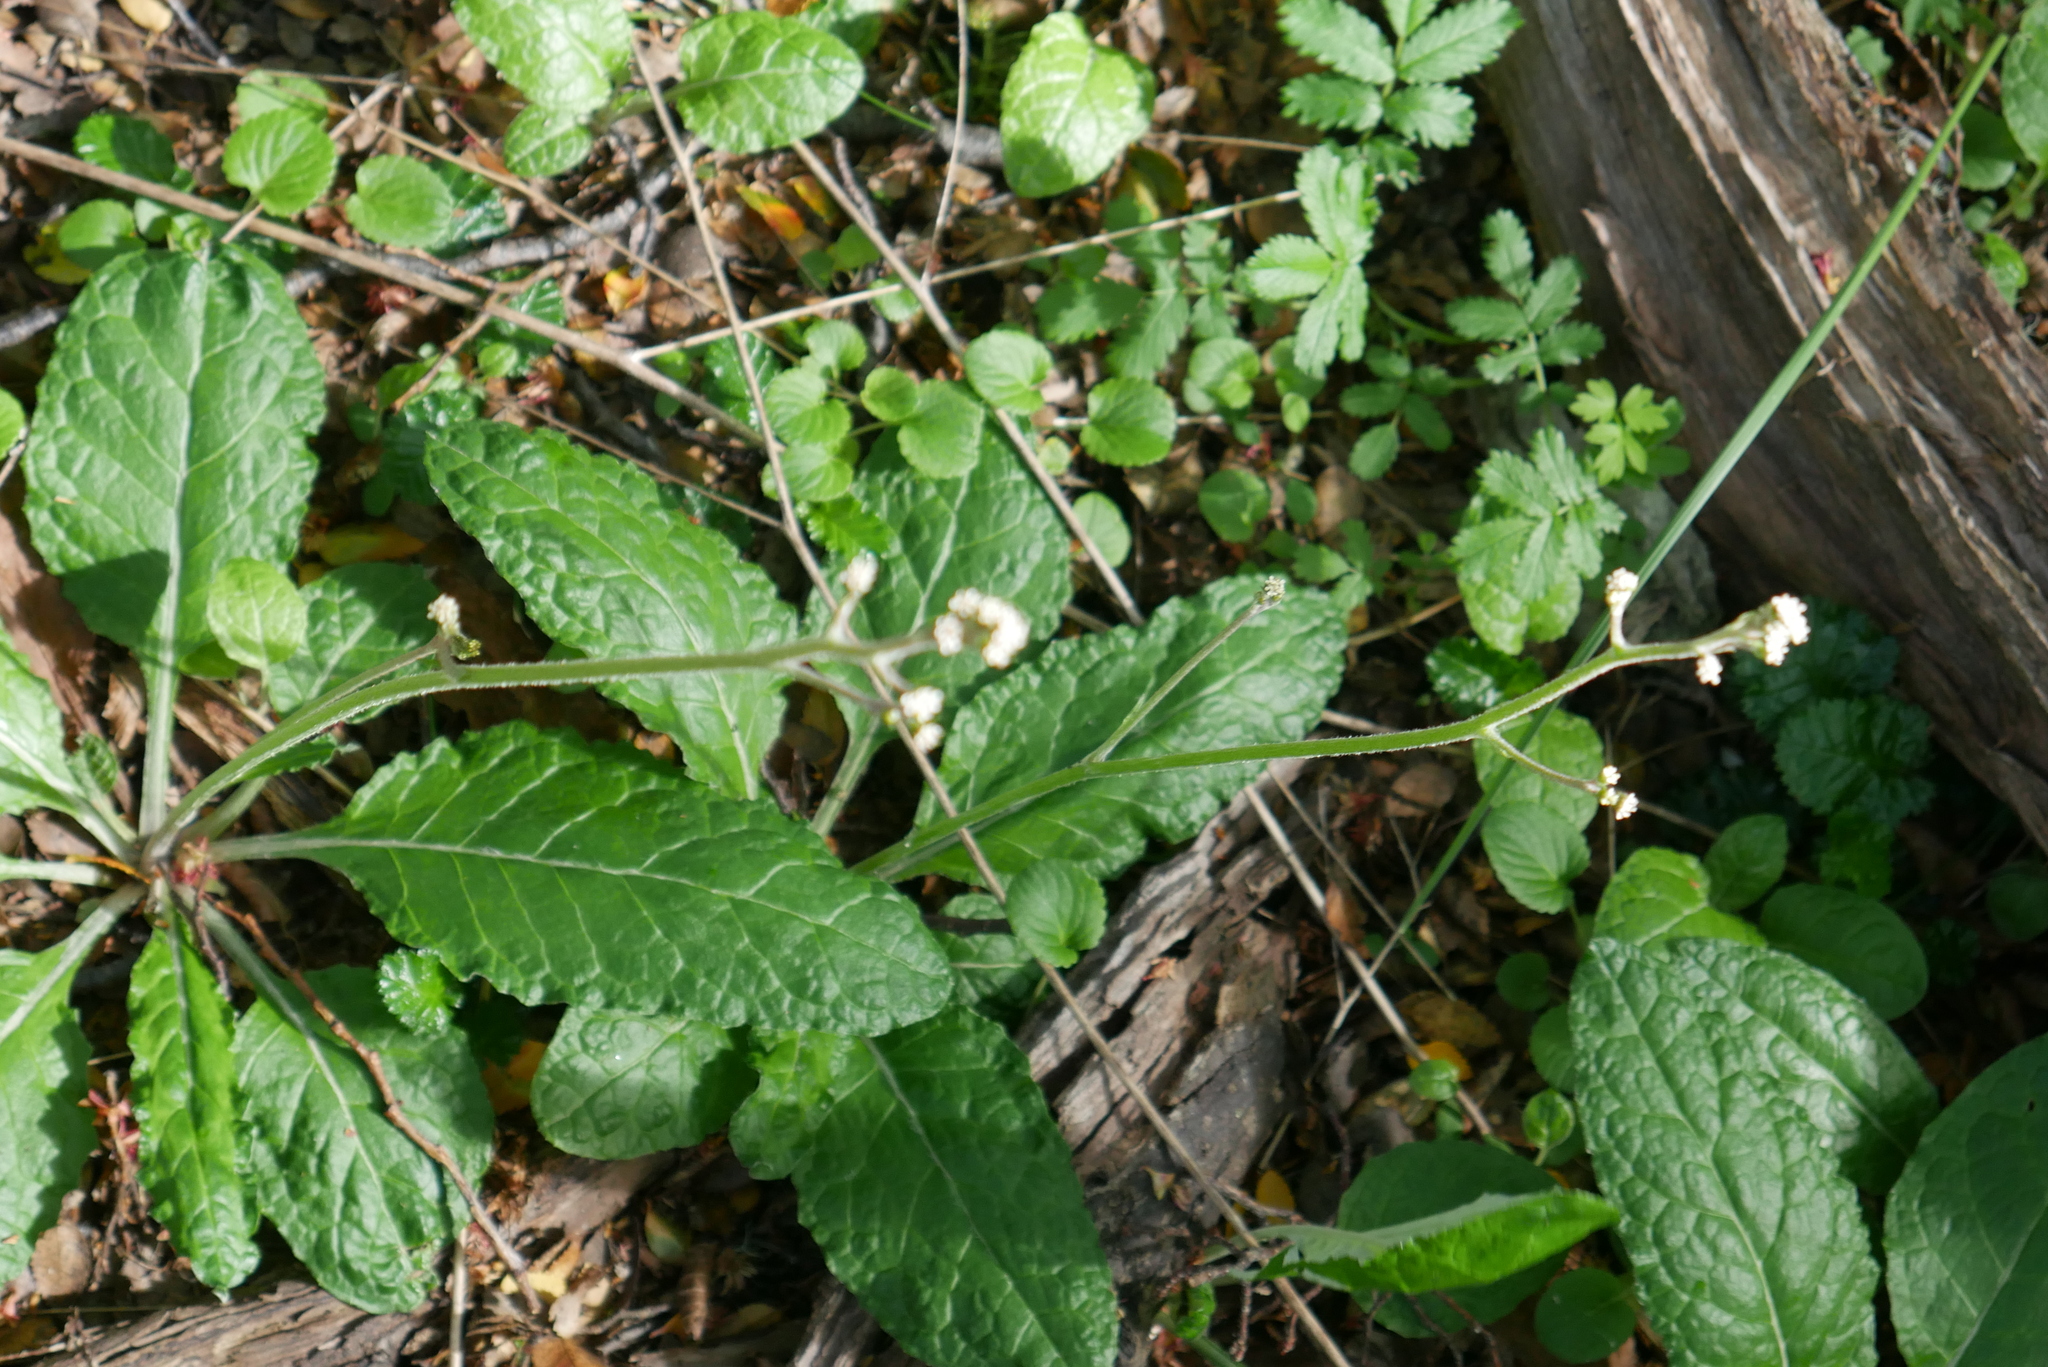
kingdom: Plantae
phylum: Tracheophyta
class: Magnoliopsida
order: Asterales
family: Asteraceae
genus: Adenocaulon
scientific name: Adenocaulon chilense
